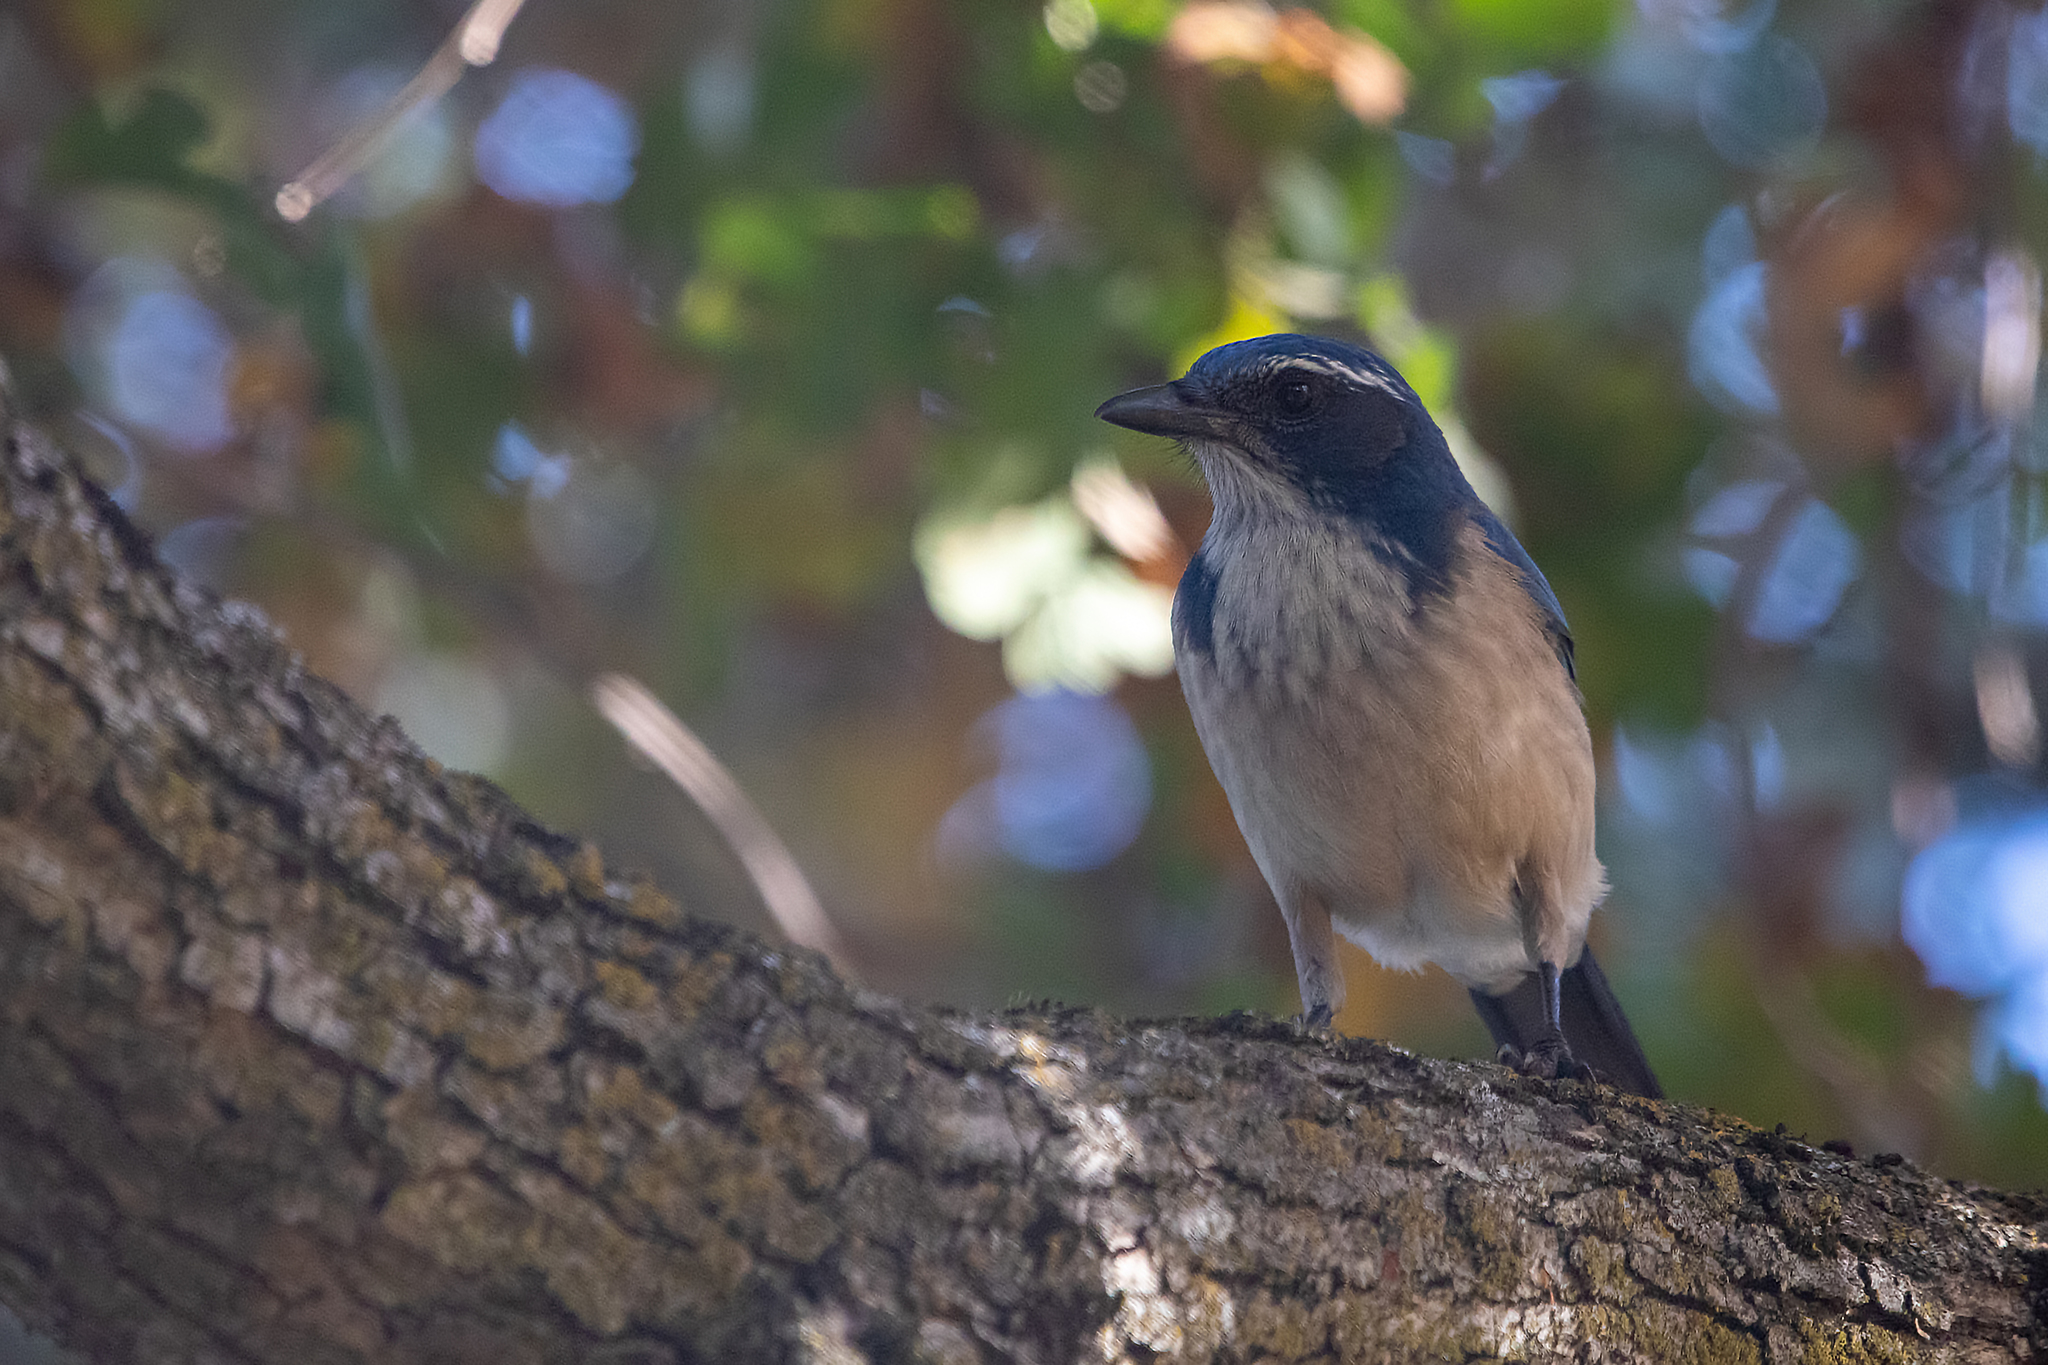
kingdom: Animalia
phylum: Chordata
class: Aves
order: Passeriformes
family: Corvidae
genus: Aphelocoma
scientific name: Aphelocoma californica
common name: California scrub-jay
